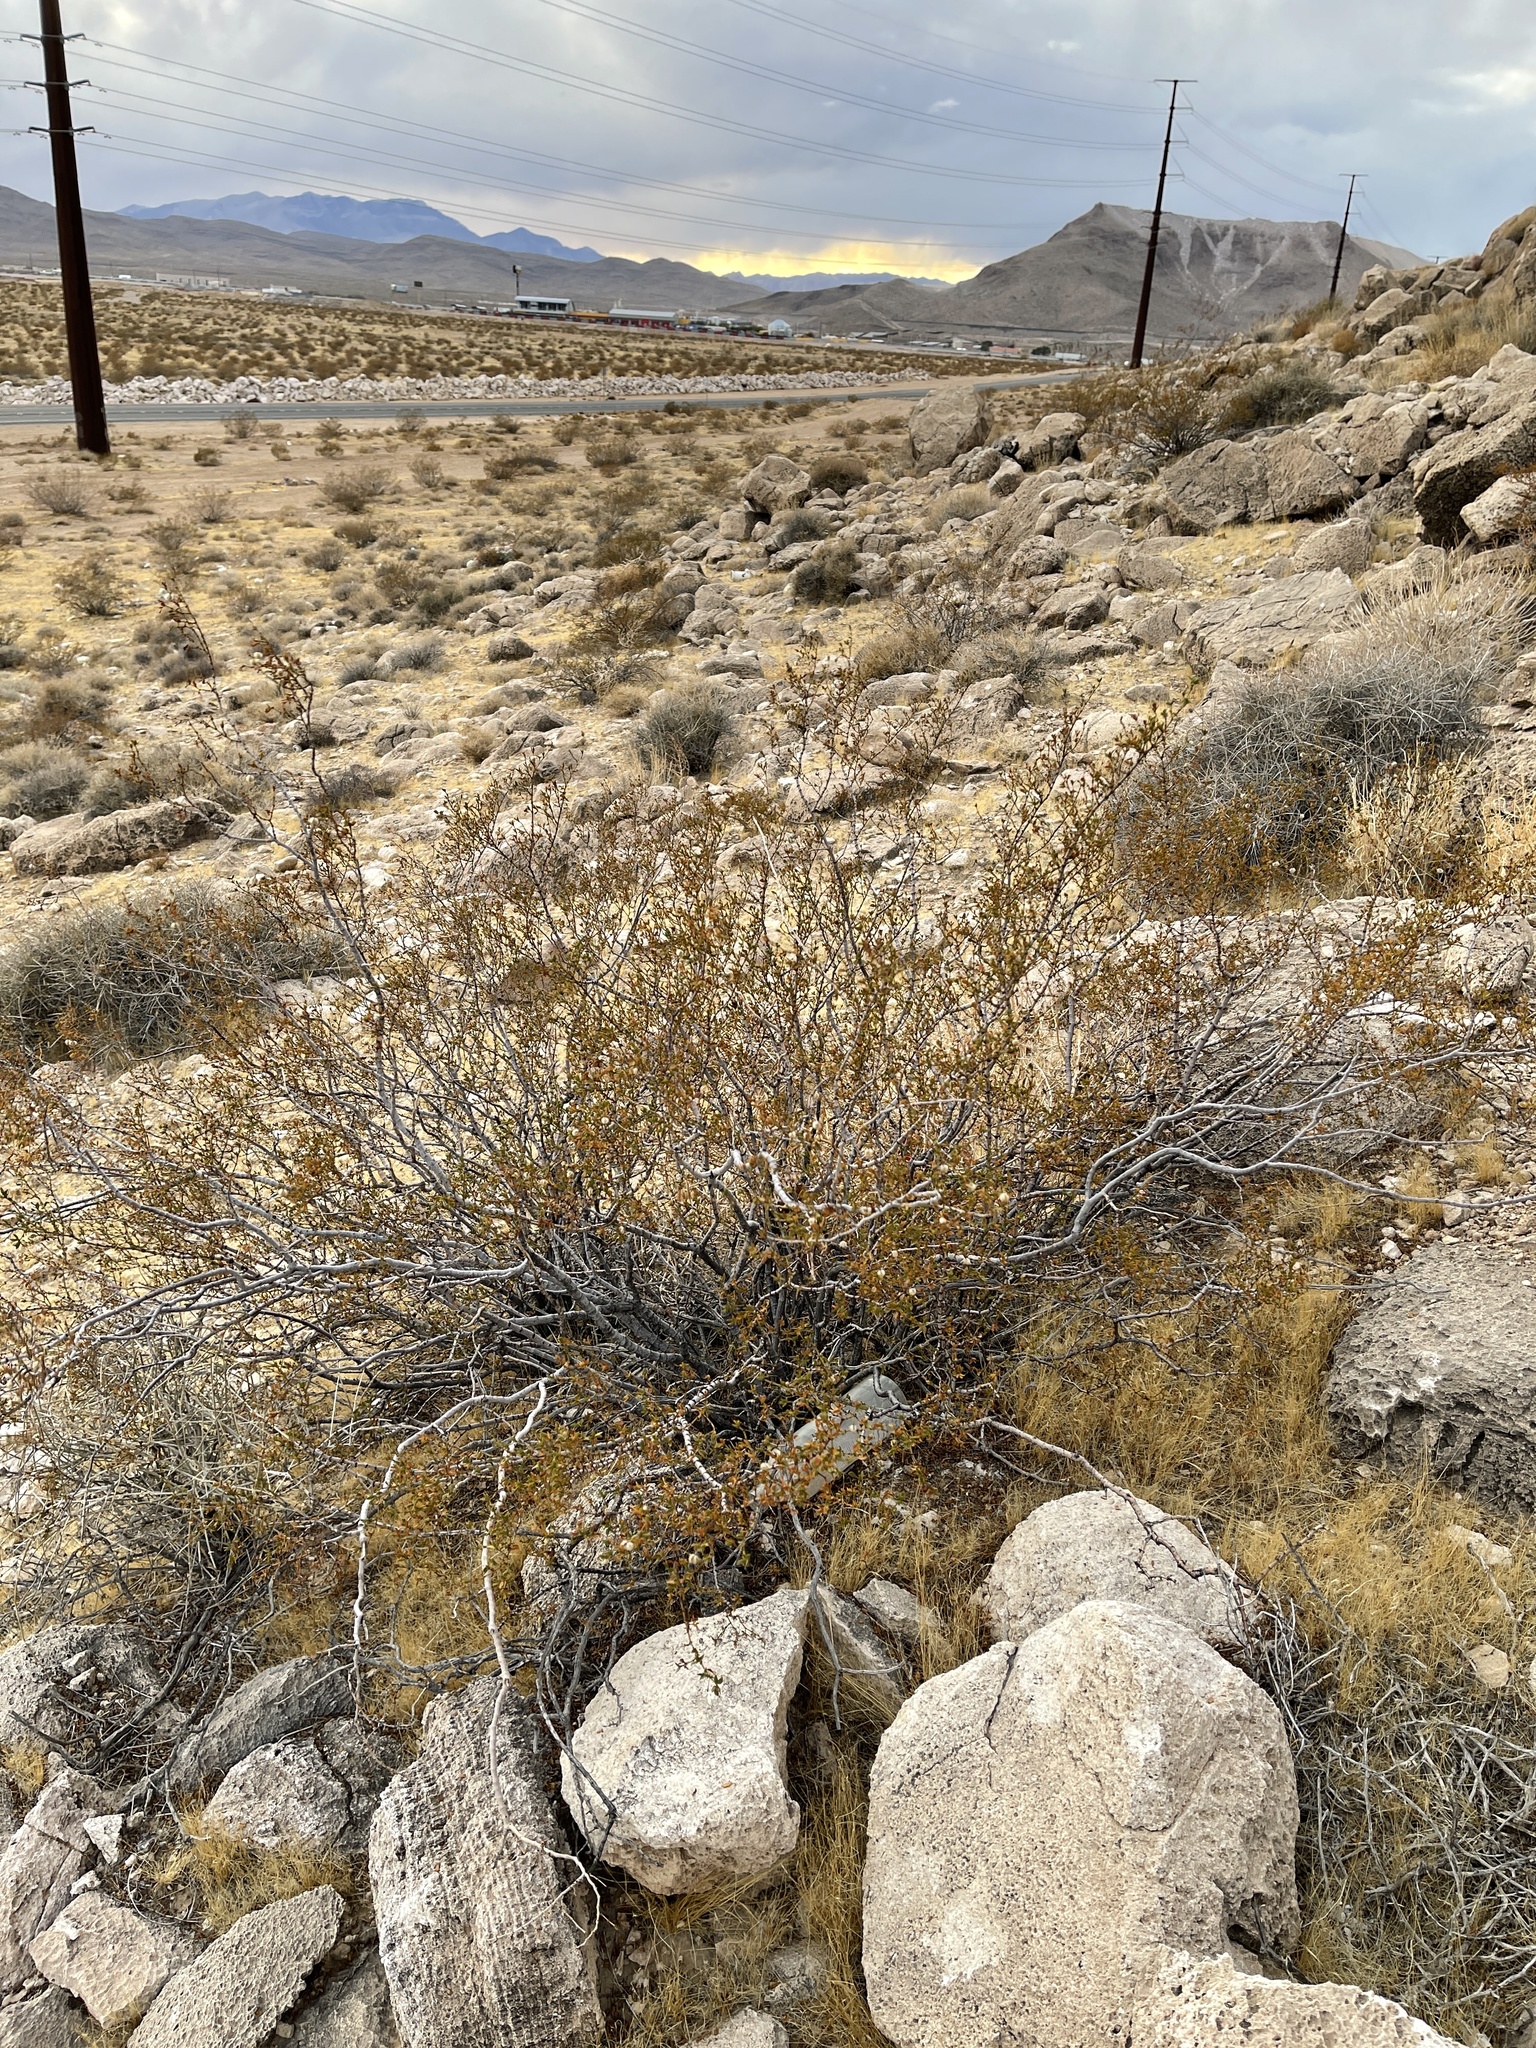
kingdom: Plantae
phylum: Tracheophyta
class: Magnoliopsida
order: Zygophyllales
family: Zygophyllaceae
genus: Larrea
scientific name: Larrea tridentata
